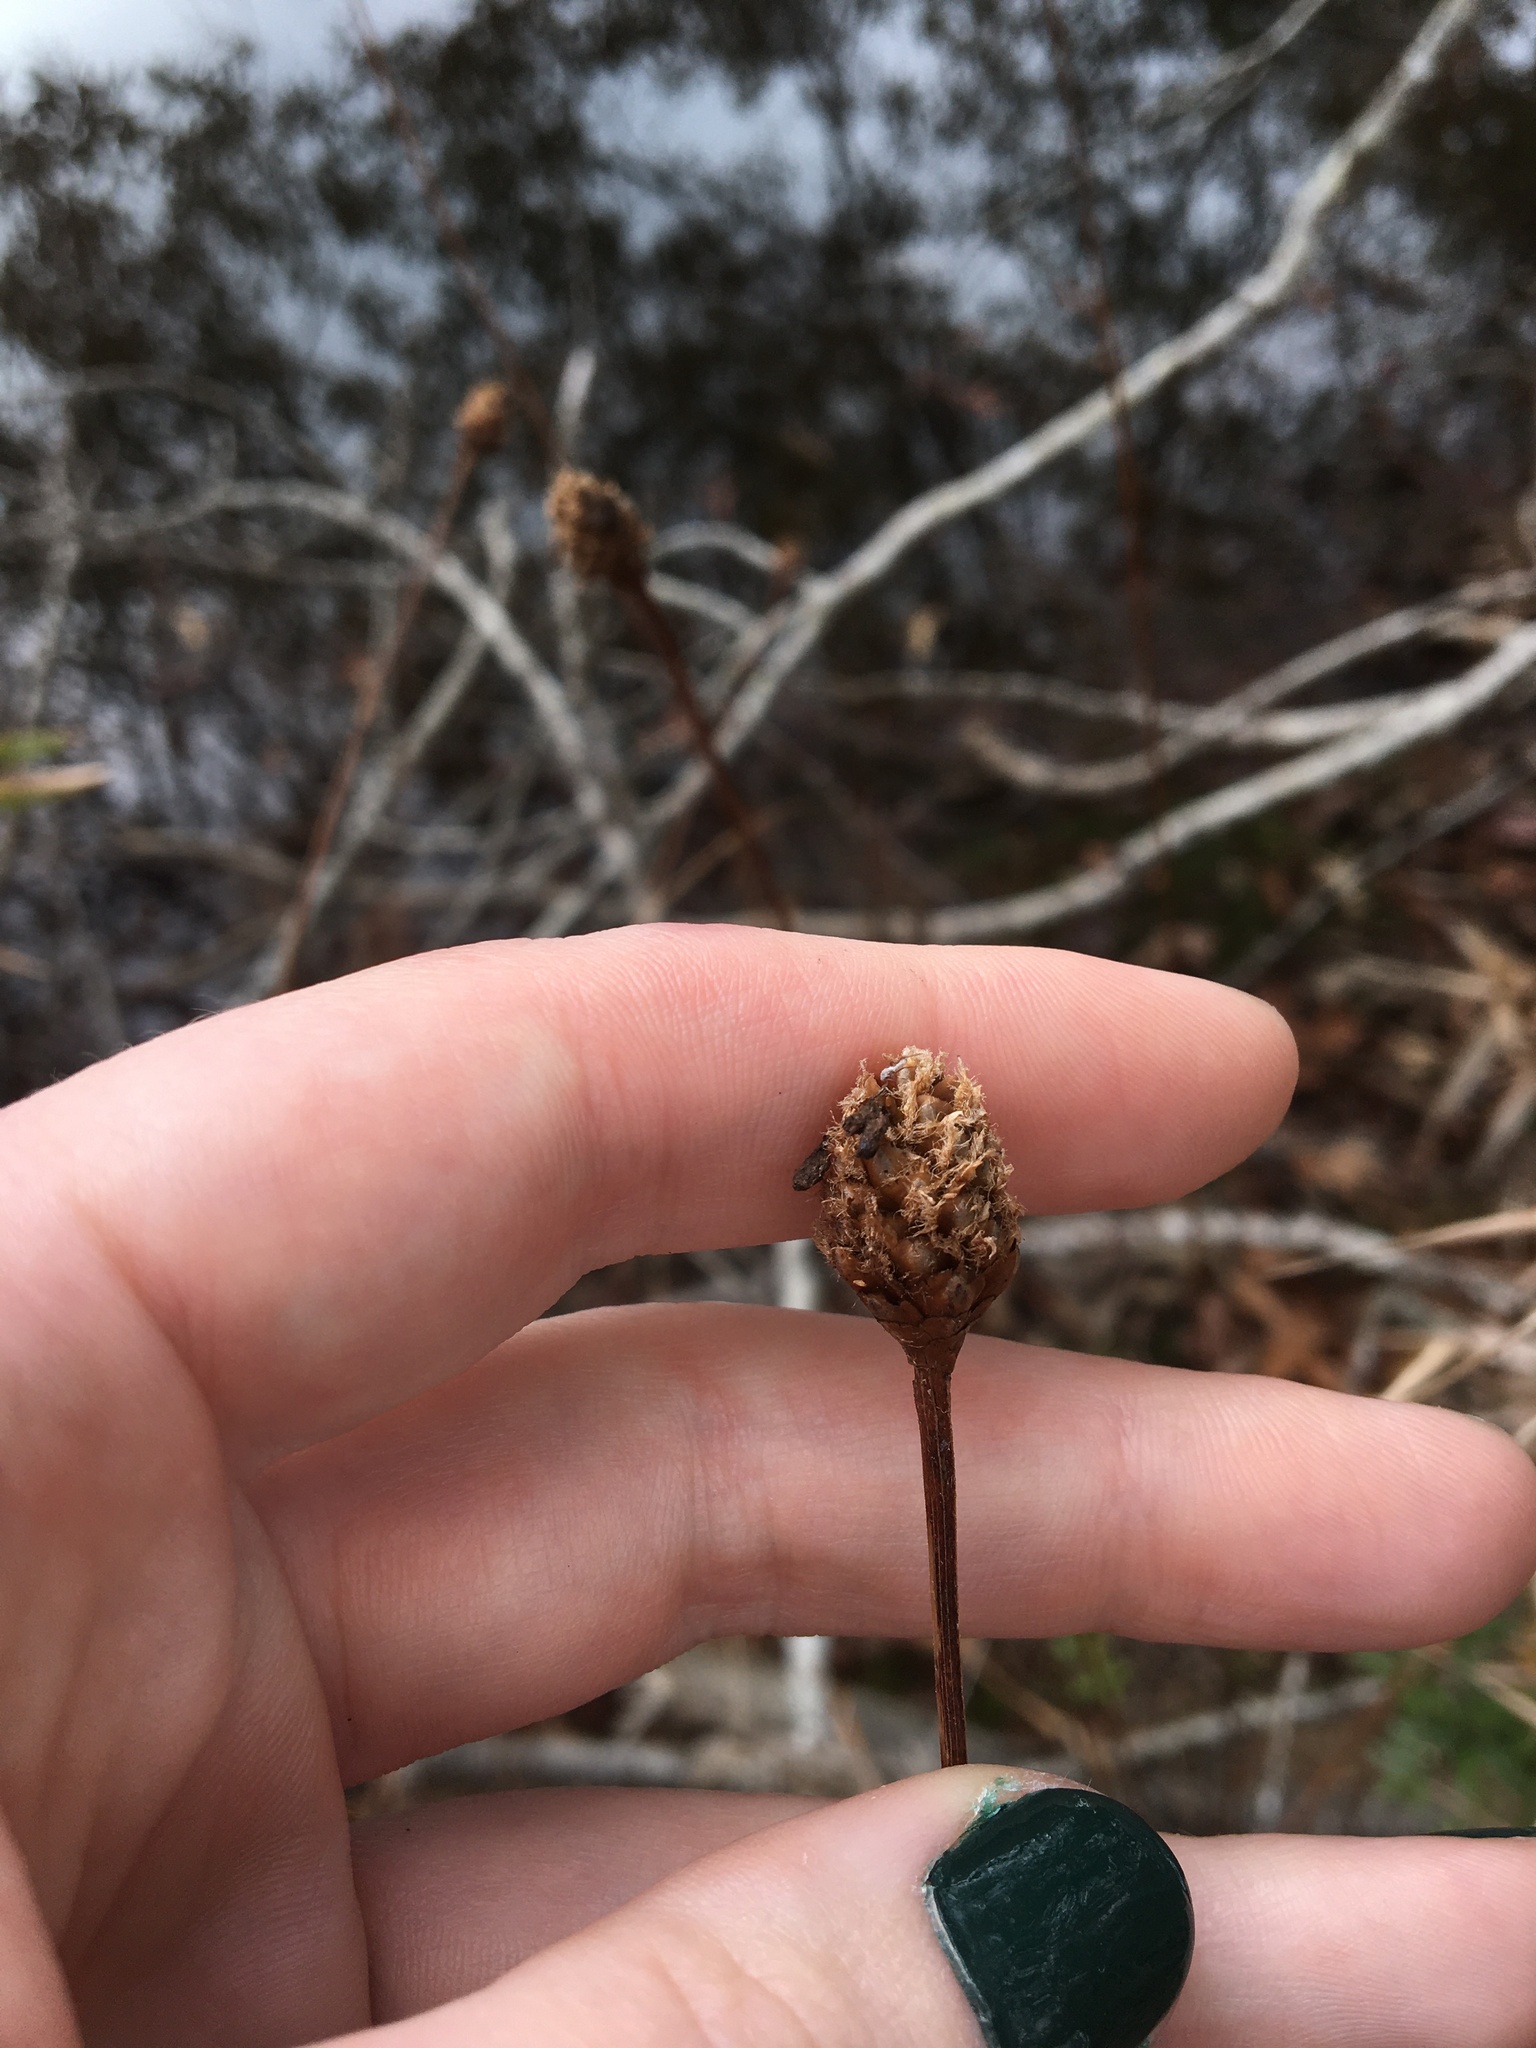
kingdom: Plantae
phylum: Tracheophyta
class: Liliopsida
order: Poales
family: Xyridaceae
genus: Xyris
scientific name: Xyris fimbriata
